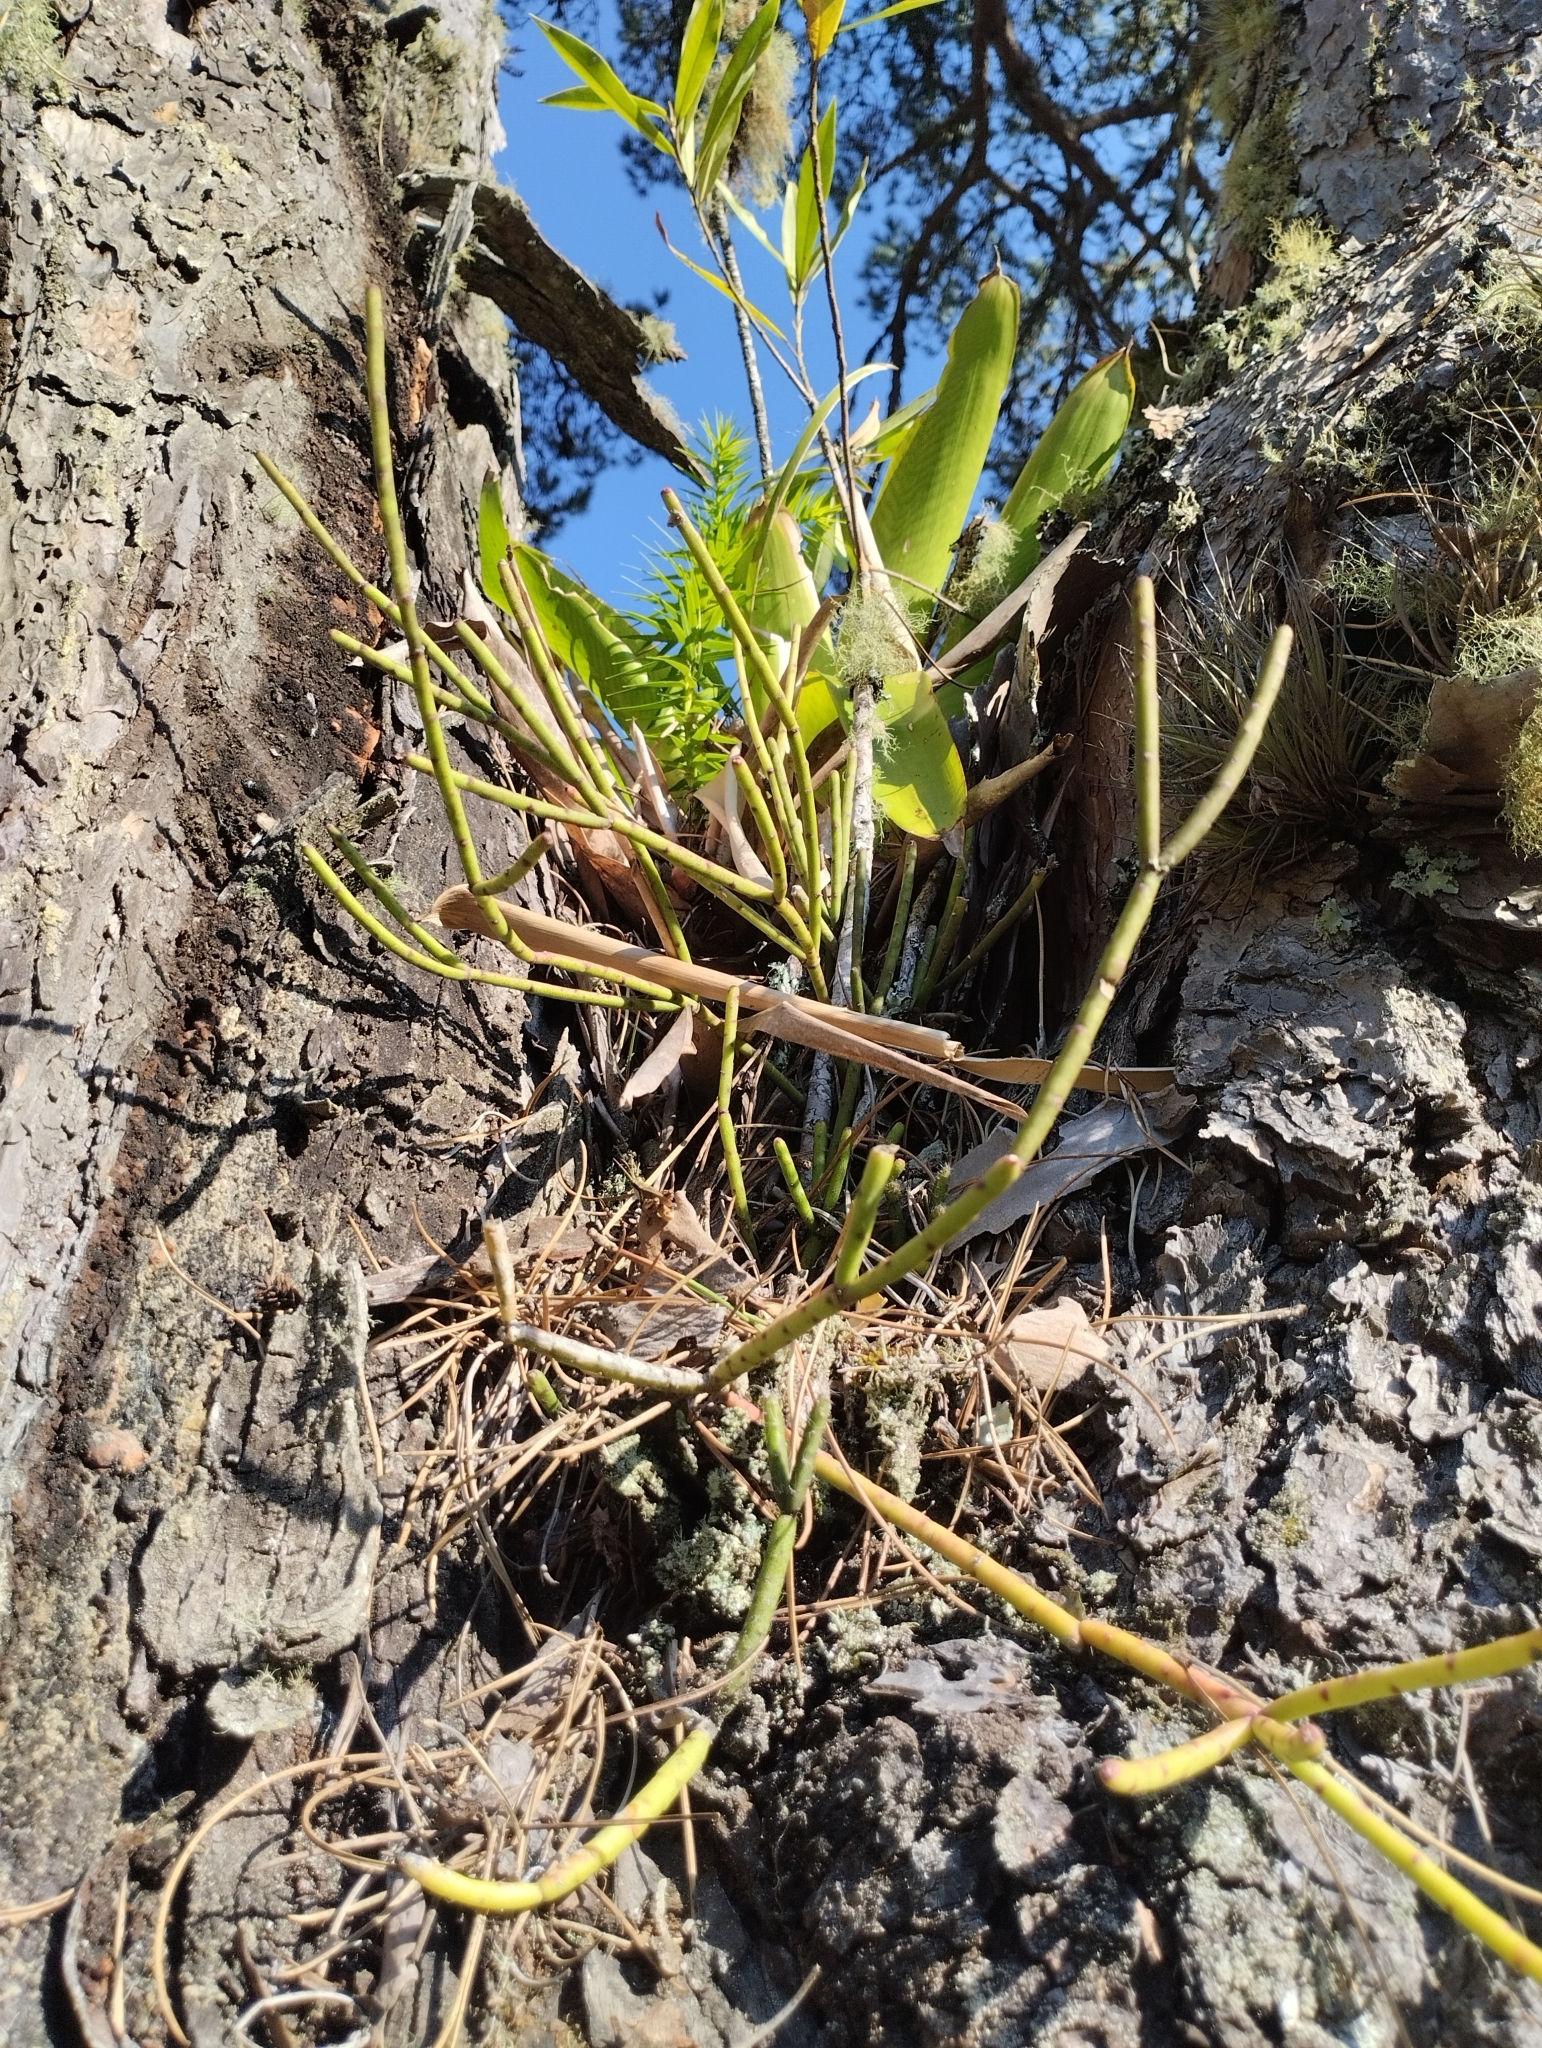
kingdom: Plantae
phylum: Tracheophyta
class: Magnoliopsida
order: Caryophyllales
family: Cactaceae
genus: Rhipsalis
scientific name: Rhipsalis floccosa
